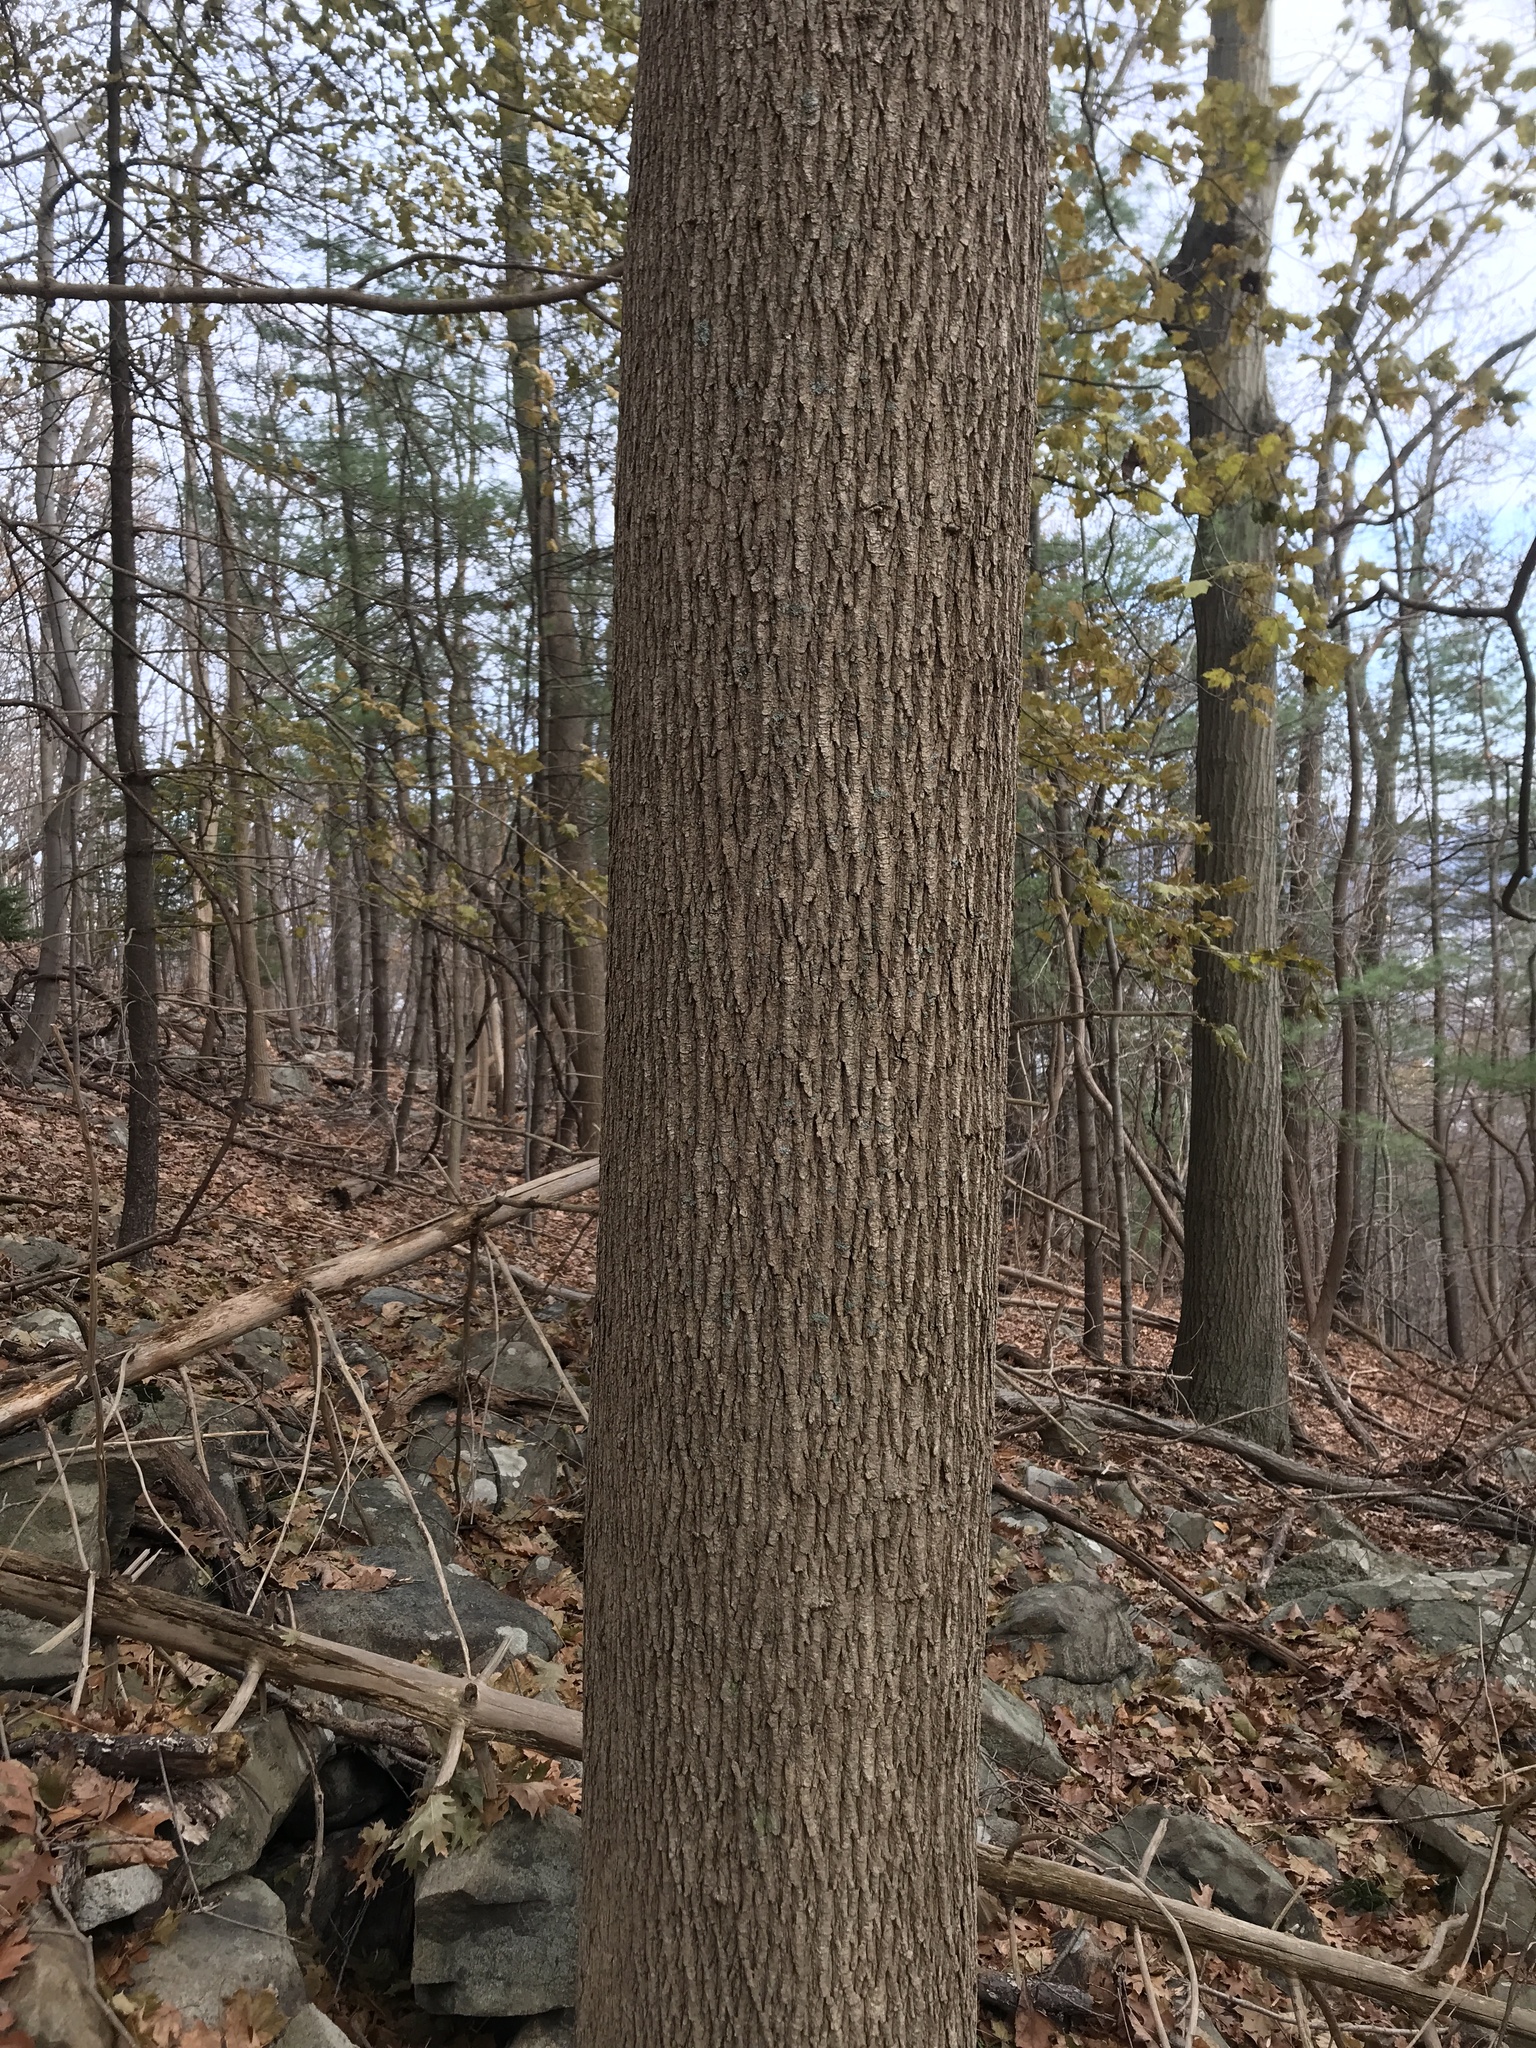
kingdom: Plantae
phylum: Tracheophyta
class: Magnoliopsida
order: Sapindales
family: Sapindaceae
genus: Acer
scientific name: Acer platanoides
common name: Norway maple
